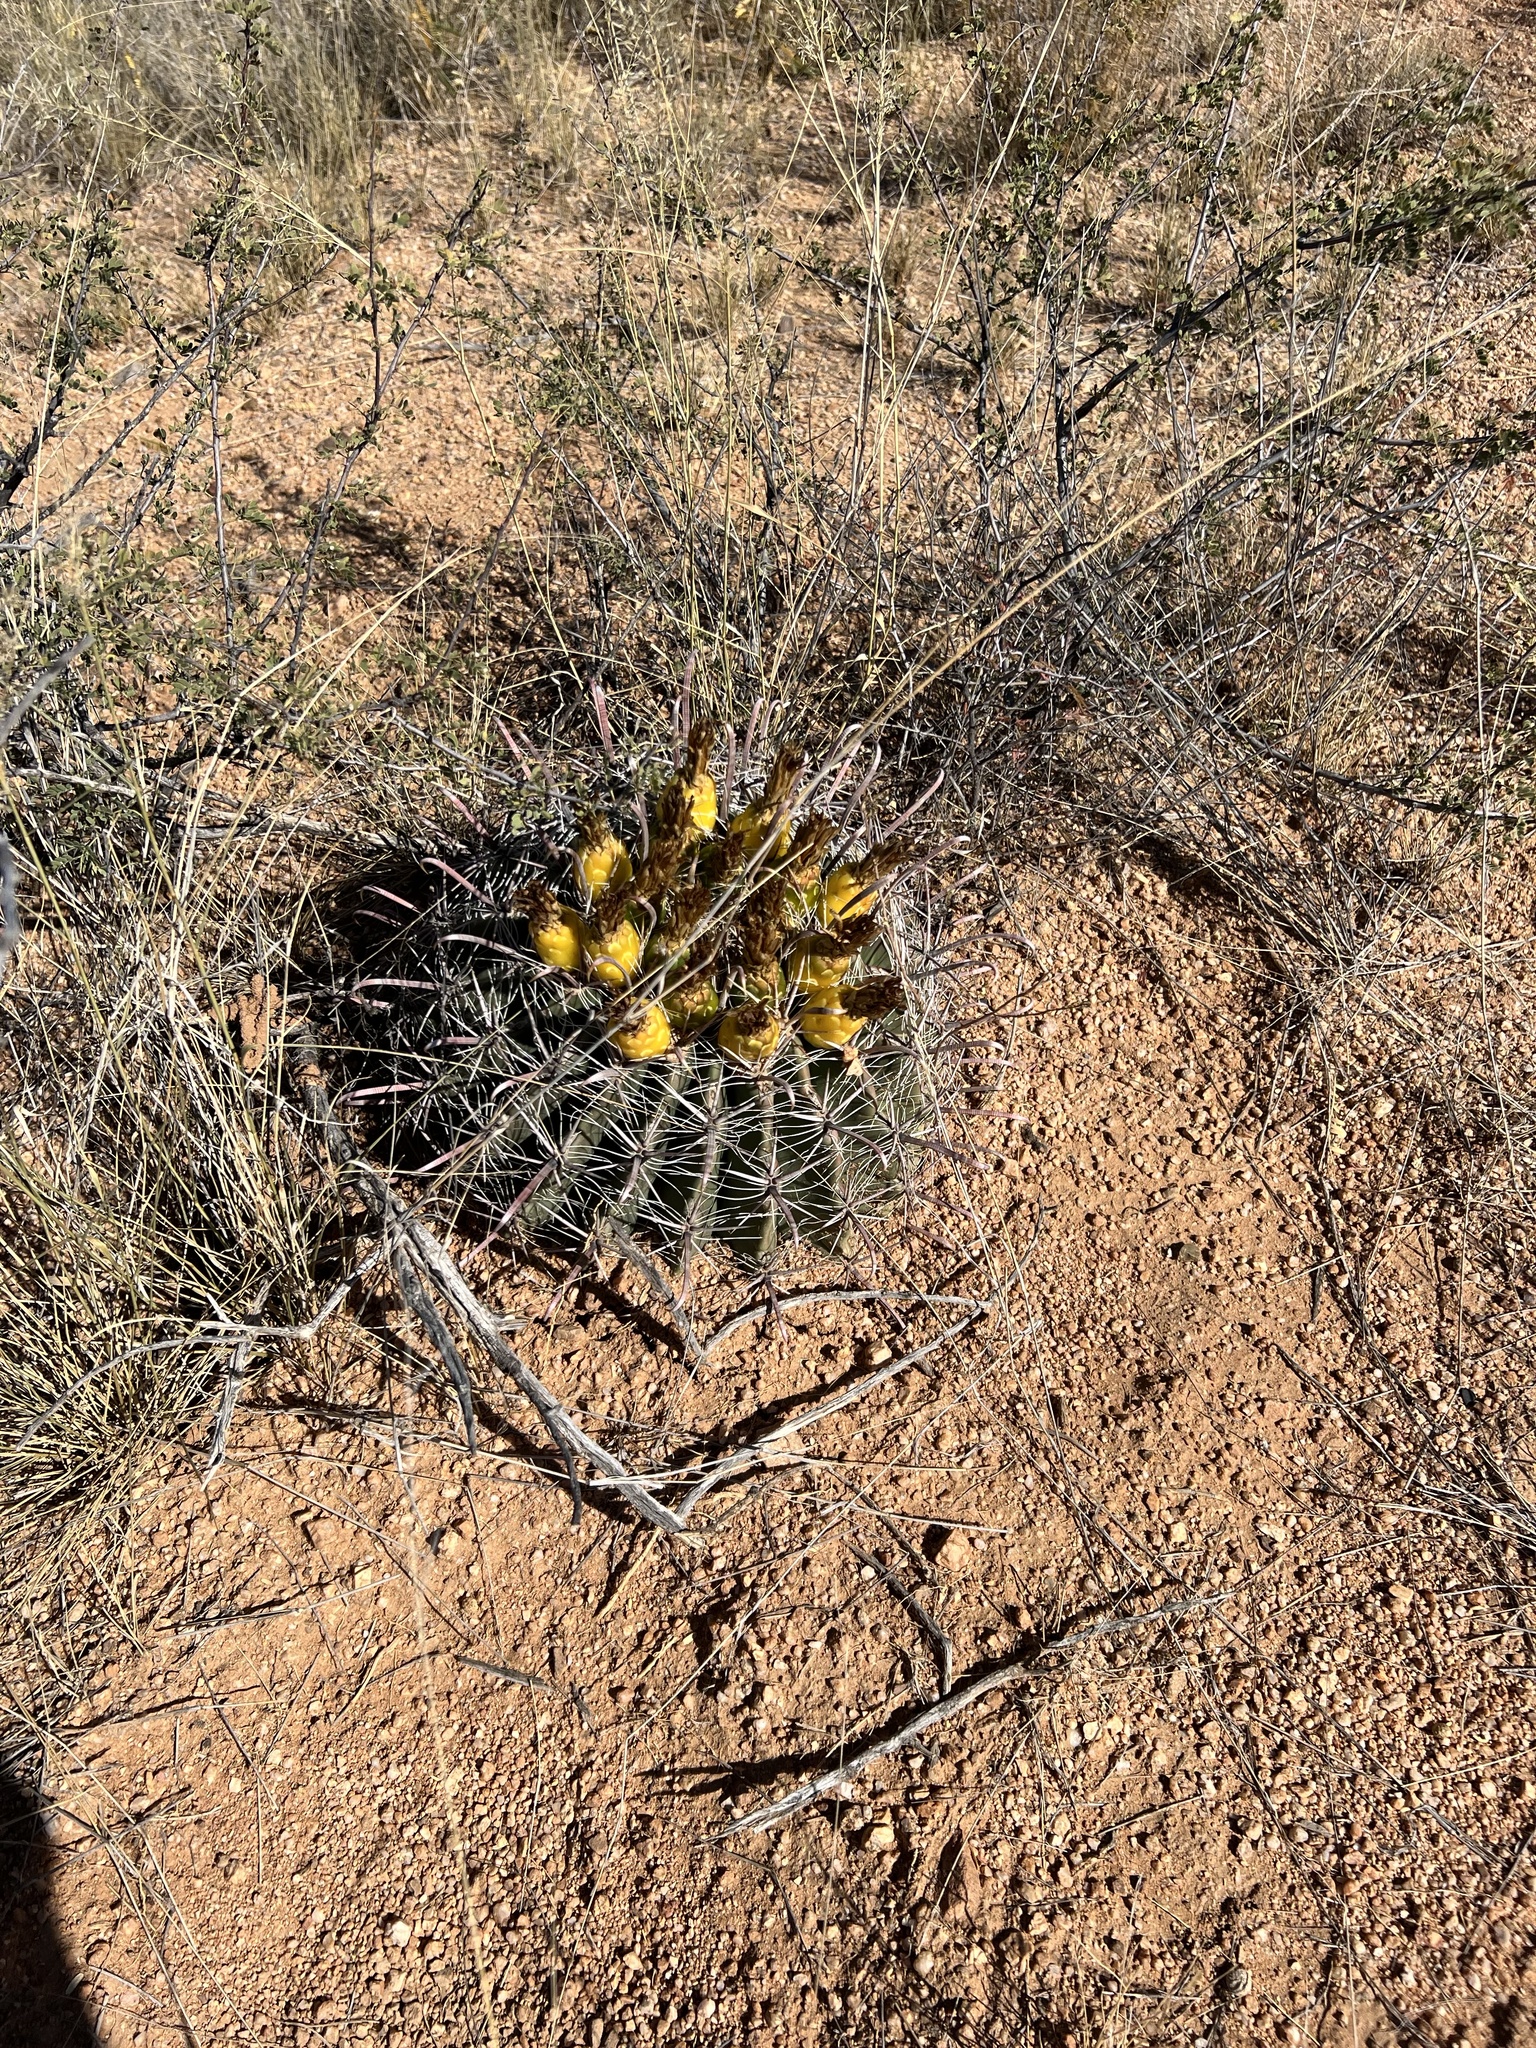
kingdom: Plantae
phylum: Tracheophyta
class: Magnoliopsida
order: Caryophyllales
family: Cactaceae
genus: Ferocactus
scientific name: Ferocactus wislizeni
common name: Candy barrel cactus
